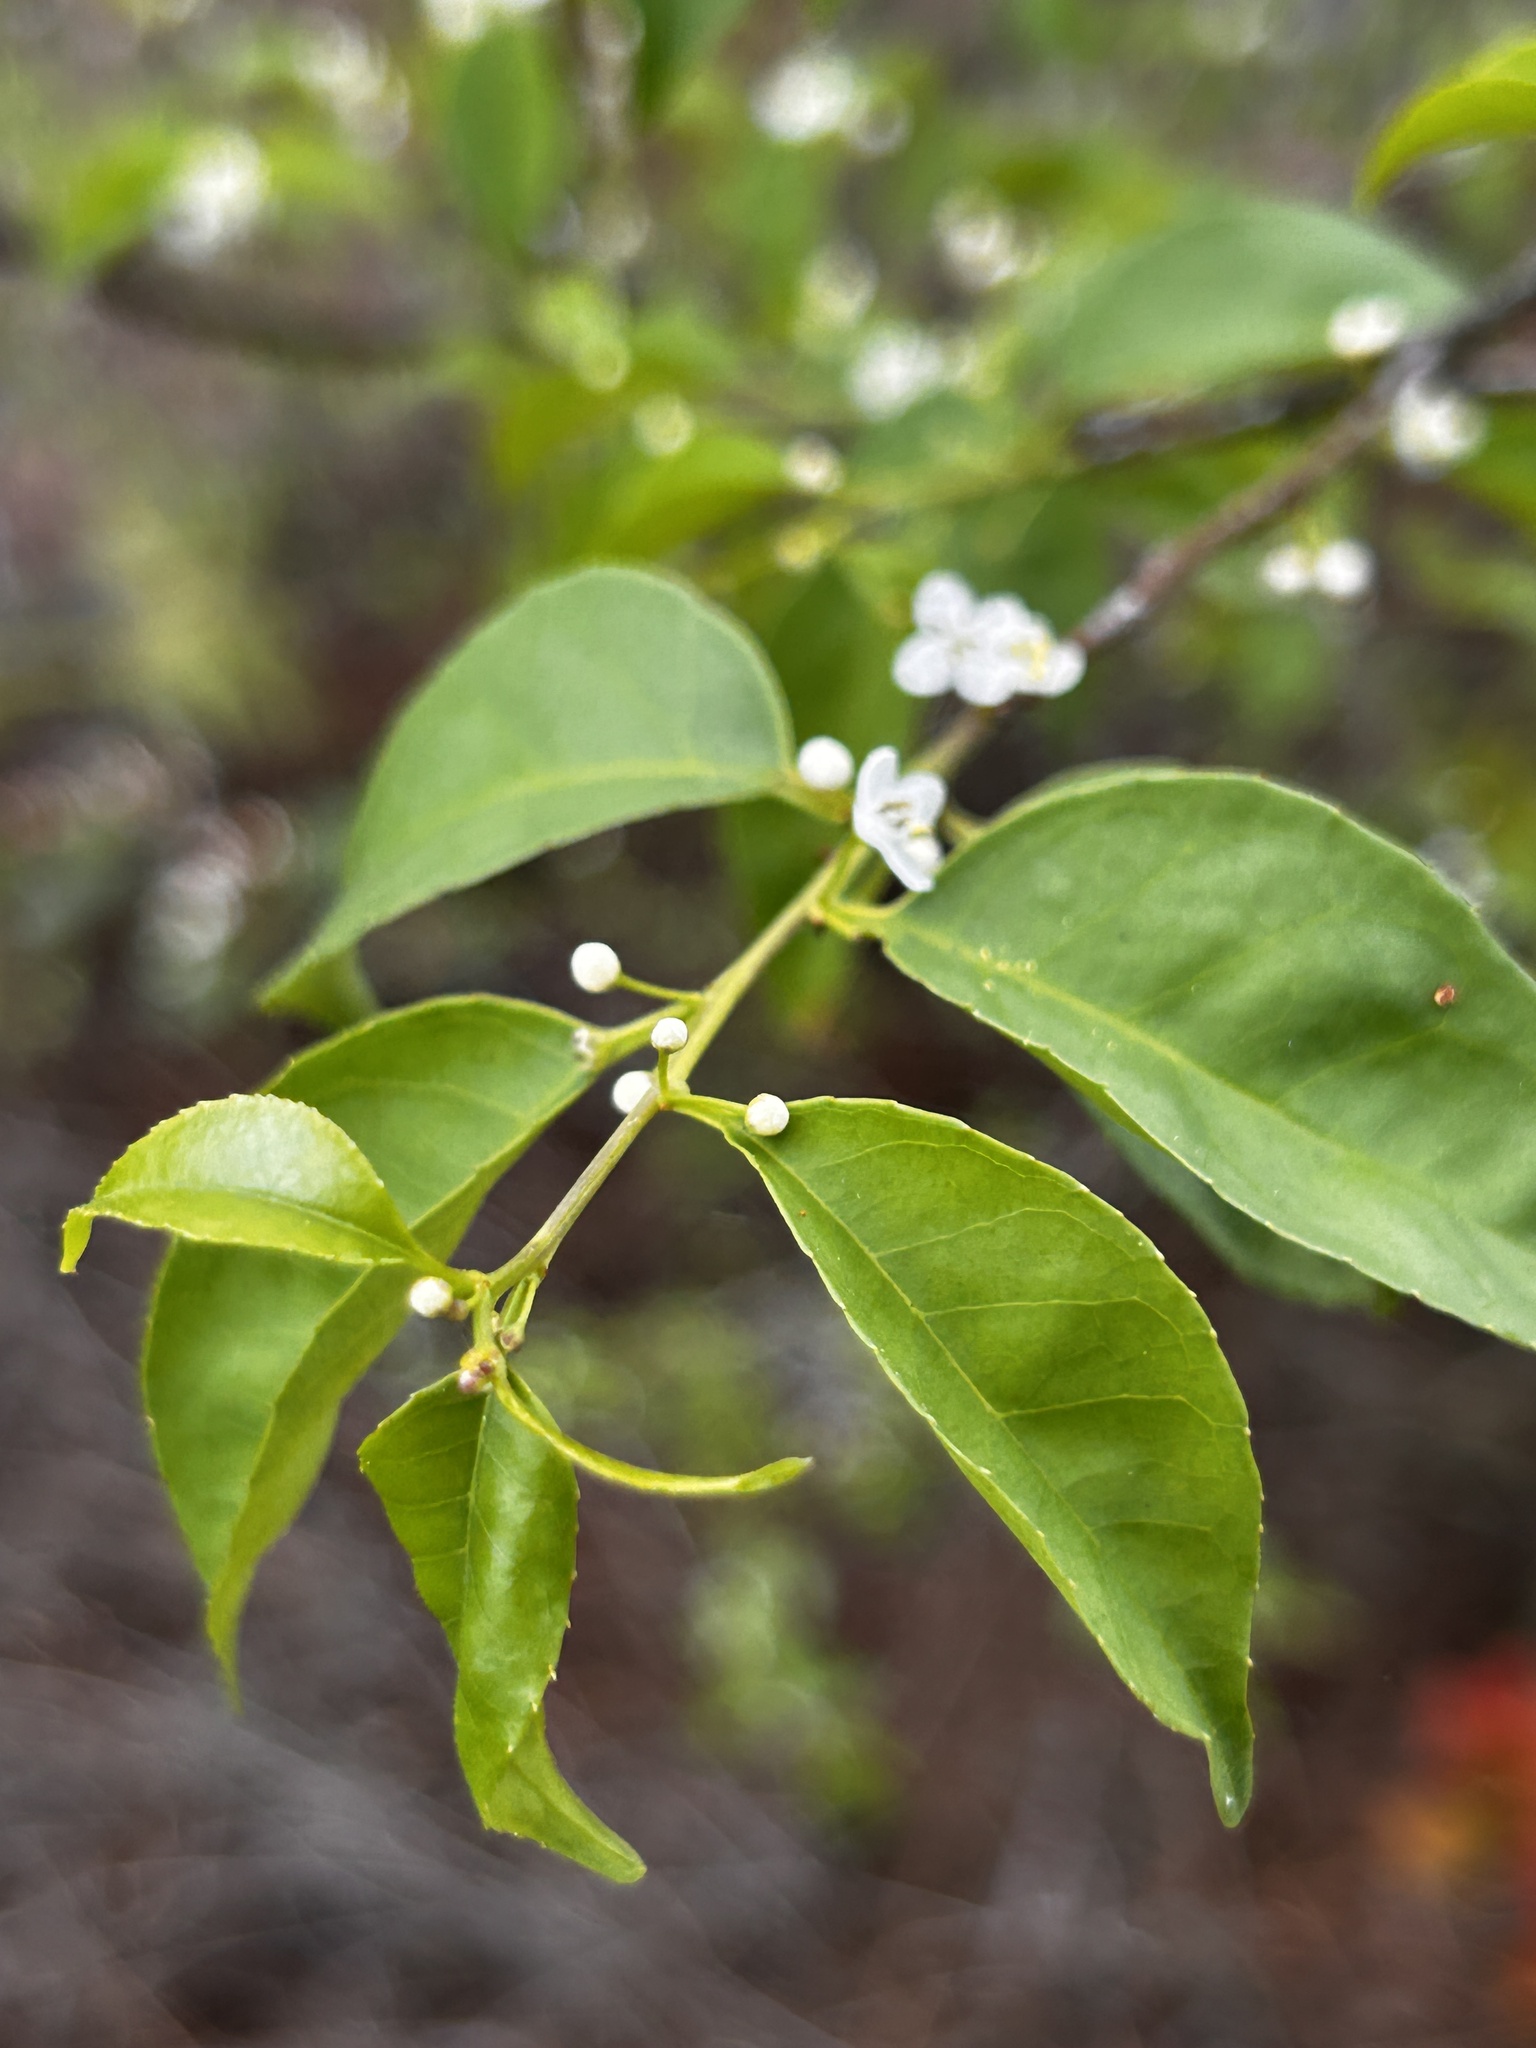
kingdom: Plantae
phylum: Tracheophyta
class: Magnoliopsida
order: Aquifoliales
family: Aquifoliaceae
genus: Ilex
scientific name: Ilex asprella
